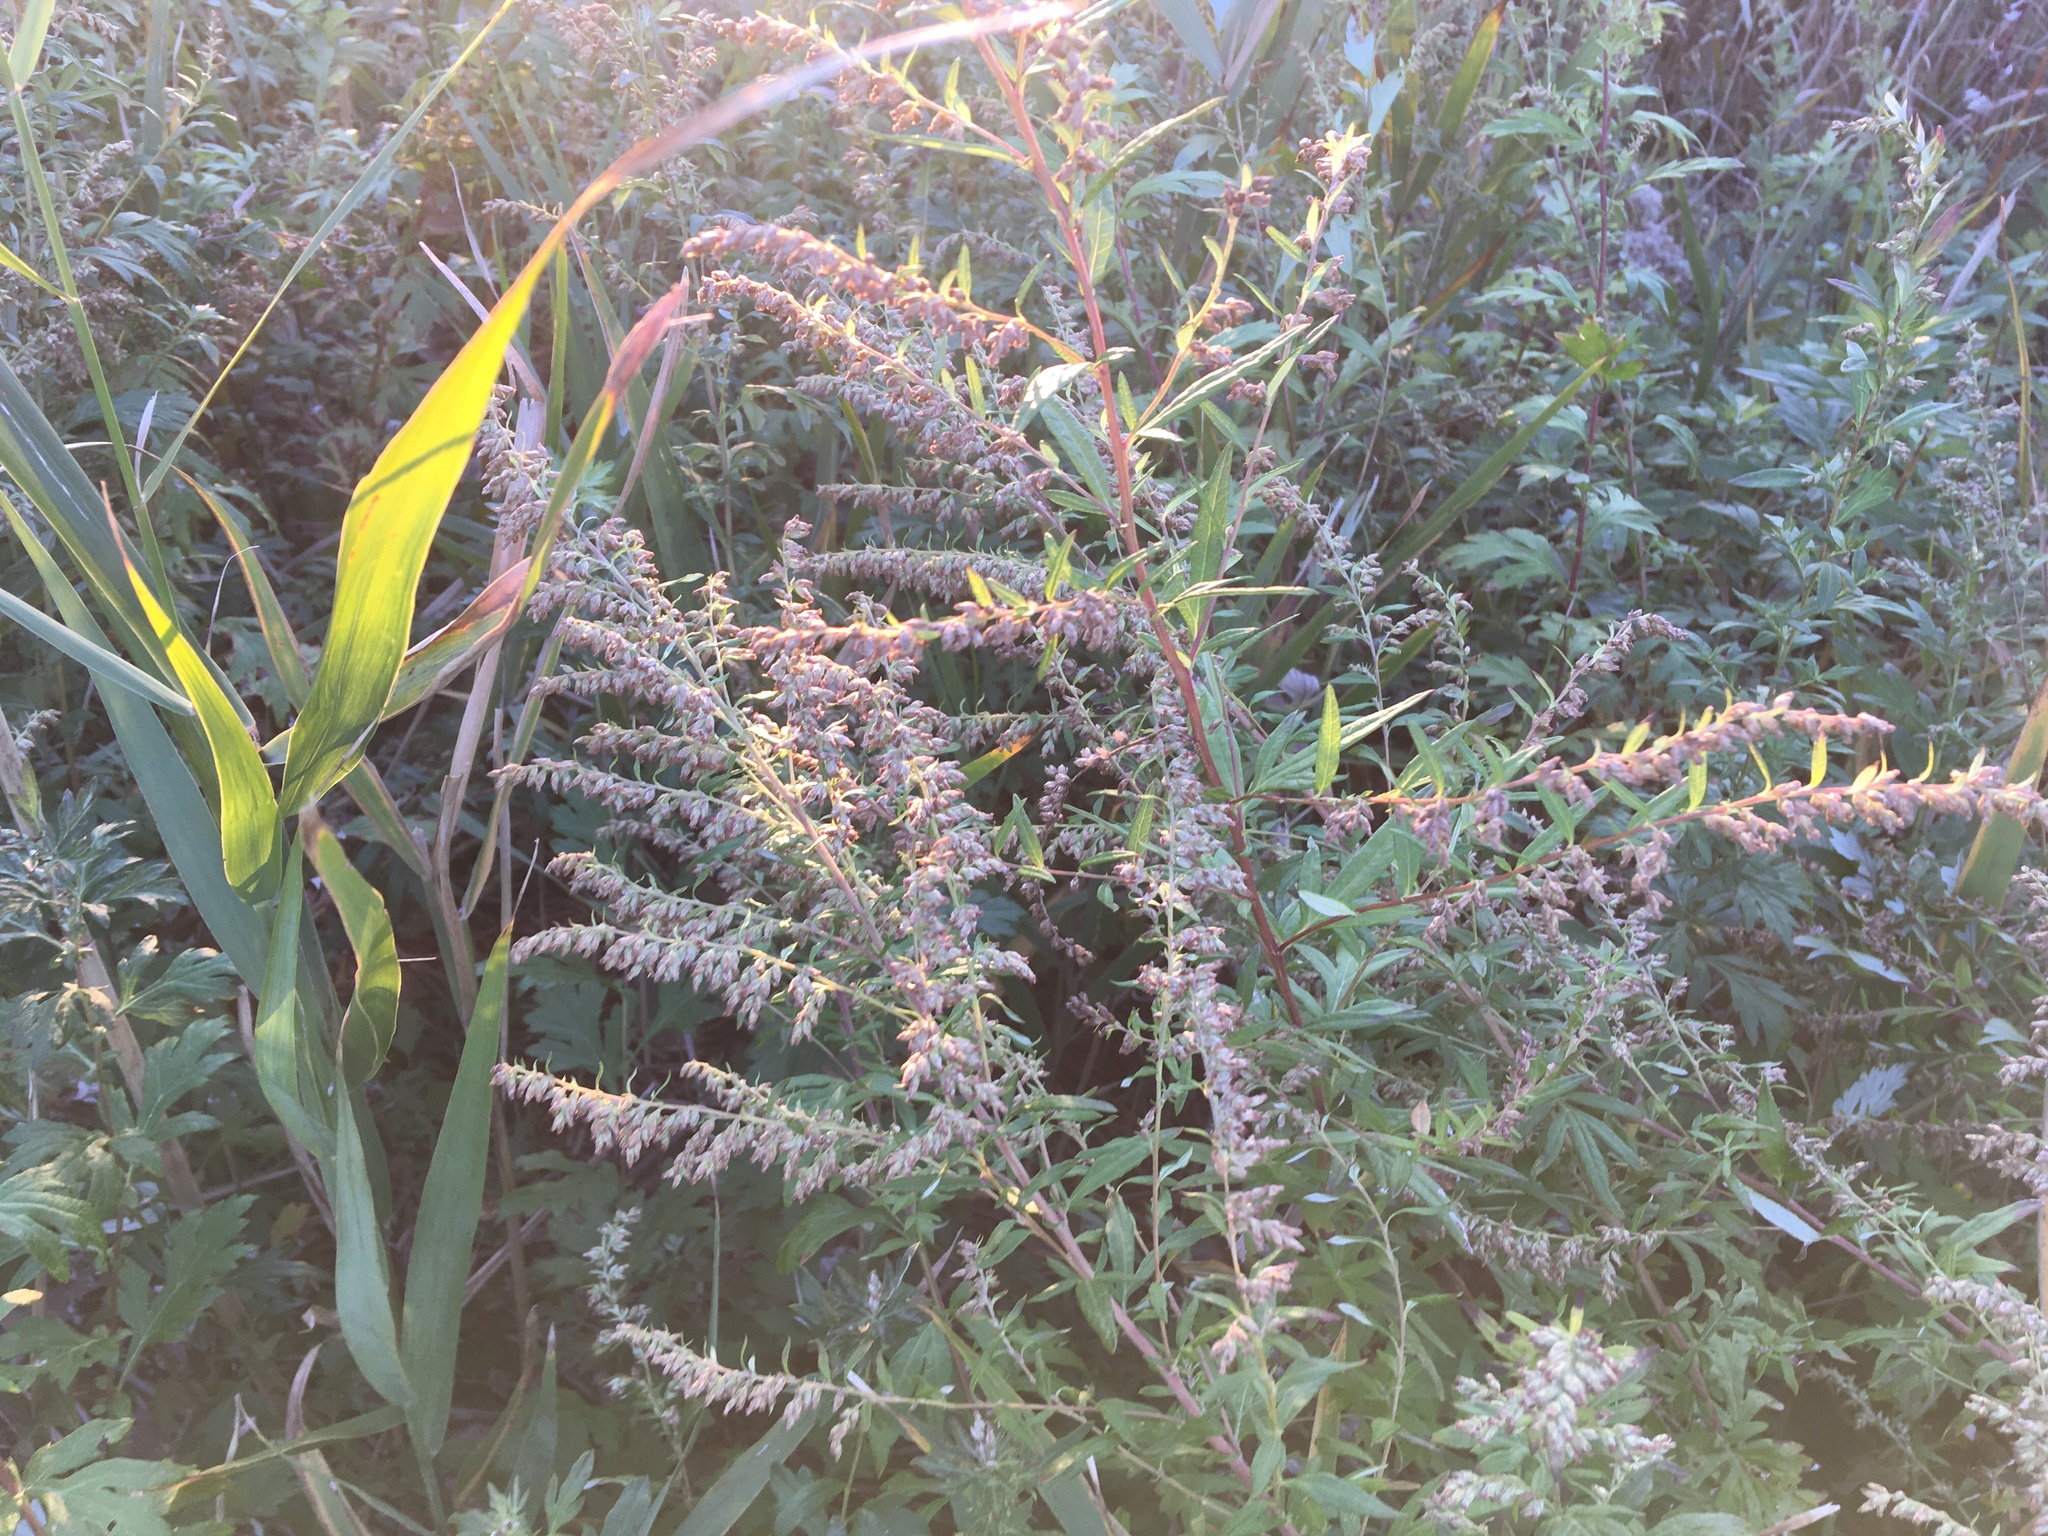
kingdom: Plantae
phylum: Tracheophyta
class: Magnoliopsida
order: Asterales
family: Asteraceae
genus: Artemisia
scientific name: Artemisia vulgaris
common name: Mugwort
